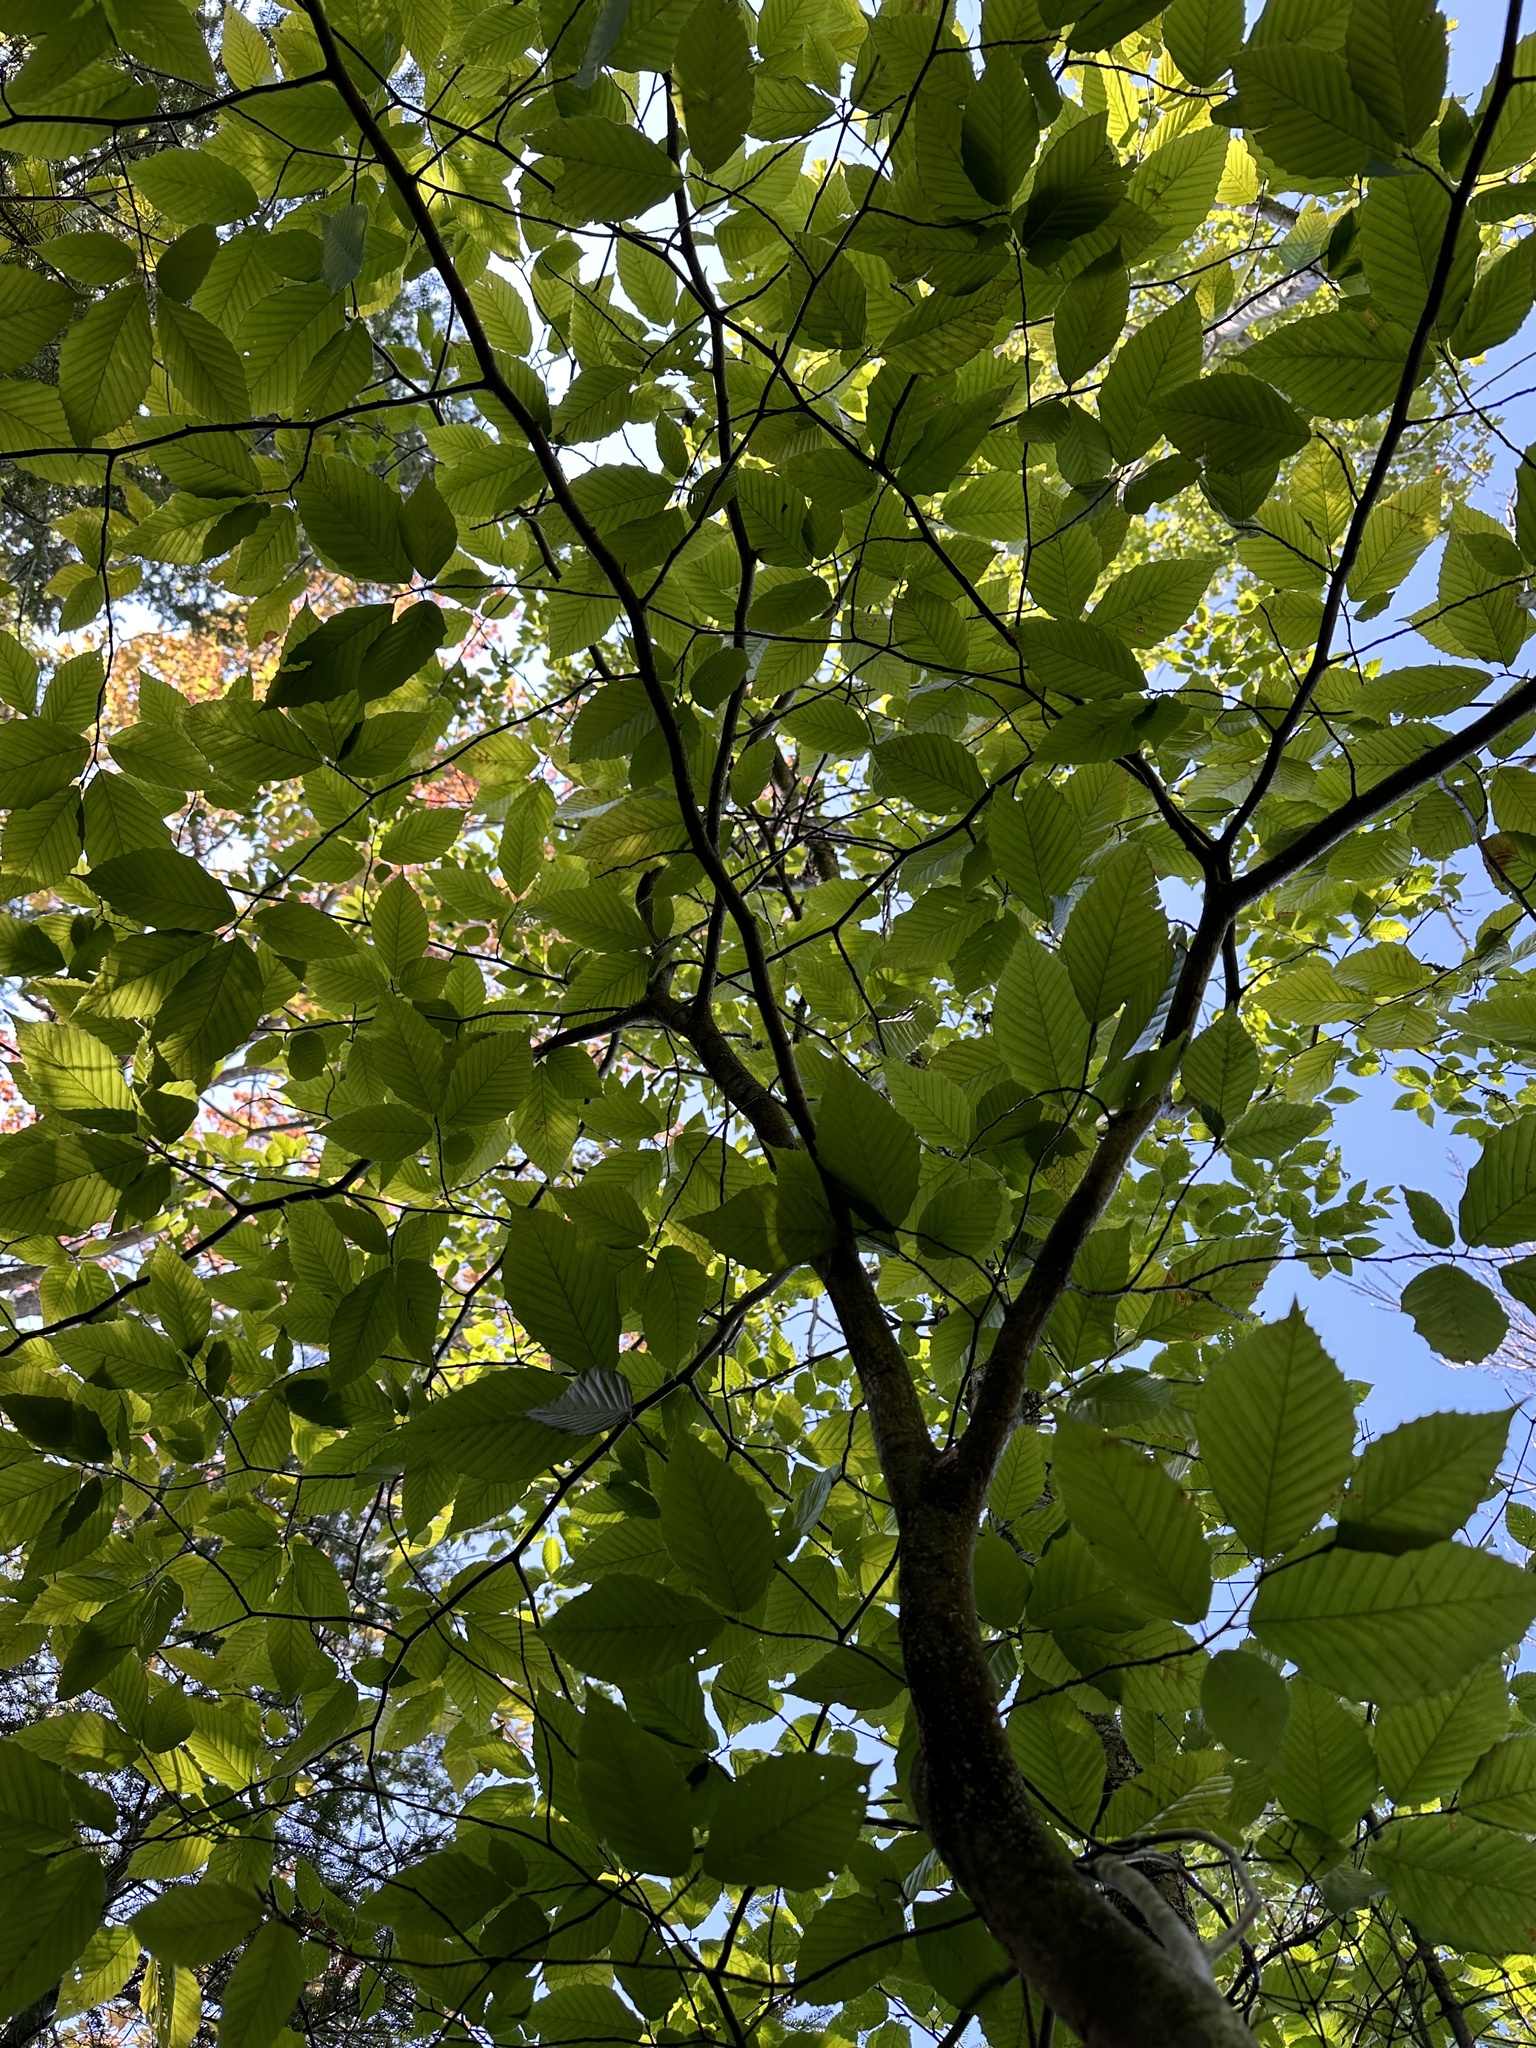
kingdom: Plantae
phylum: Tracheophyta
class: Magnoliopsida
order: Fagales
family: Fagaceae
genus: Fagus
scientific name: Fagus grandifolia
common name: American beech
